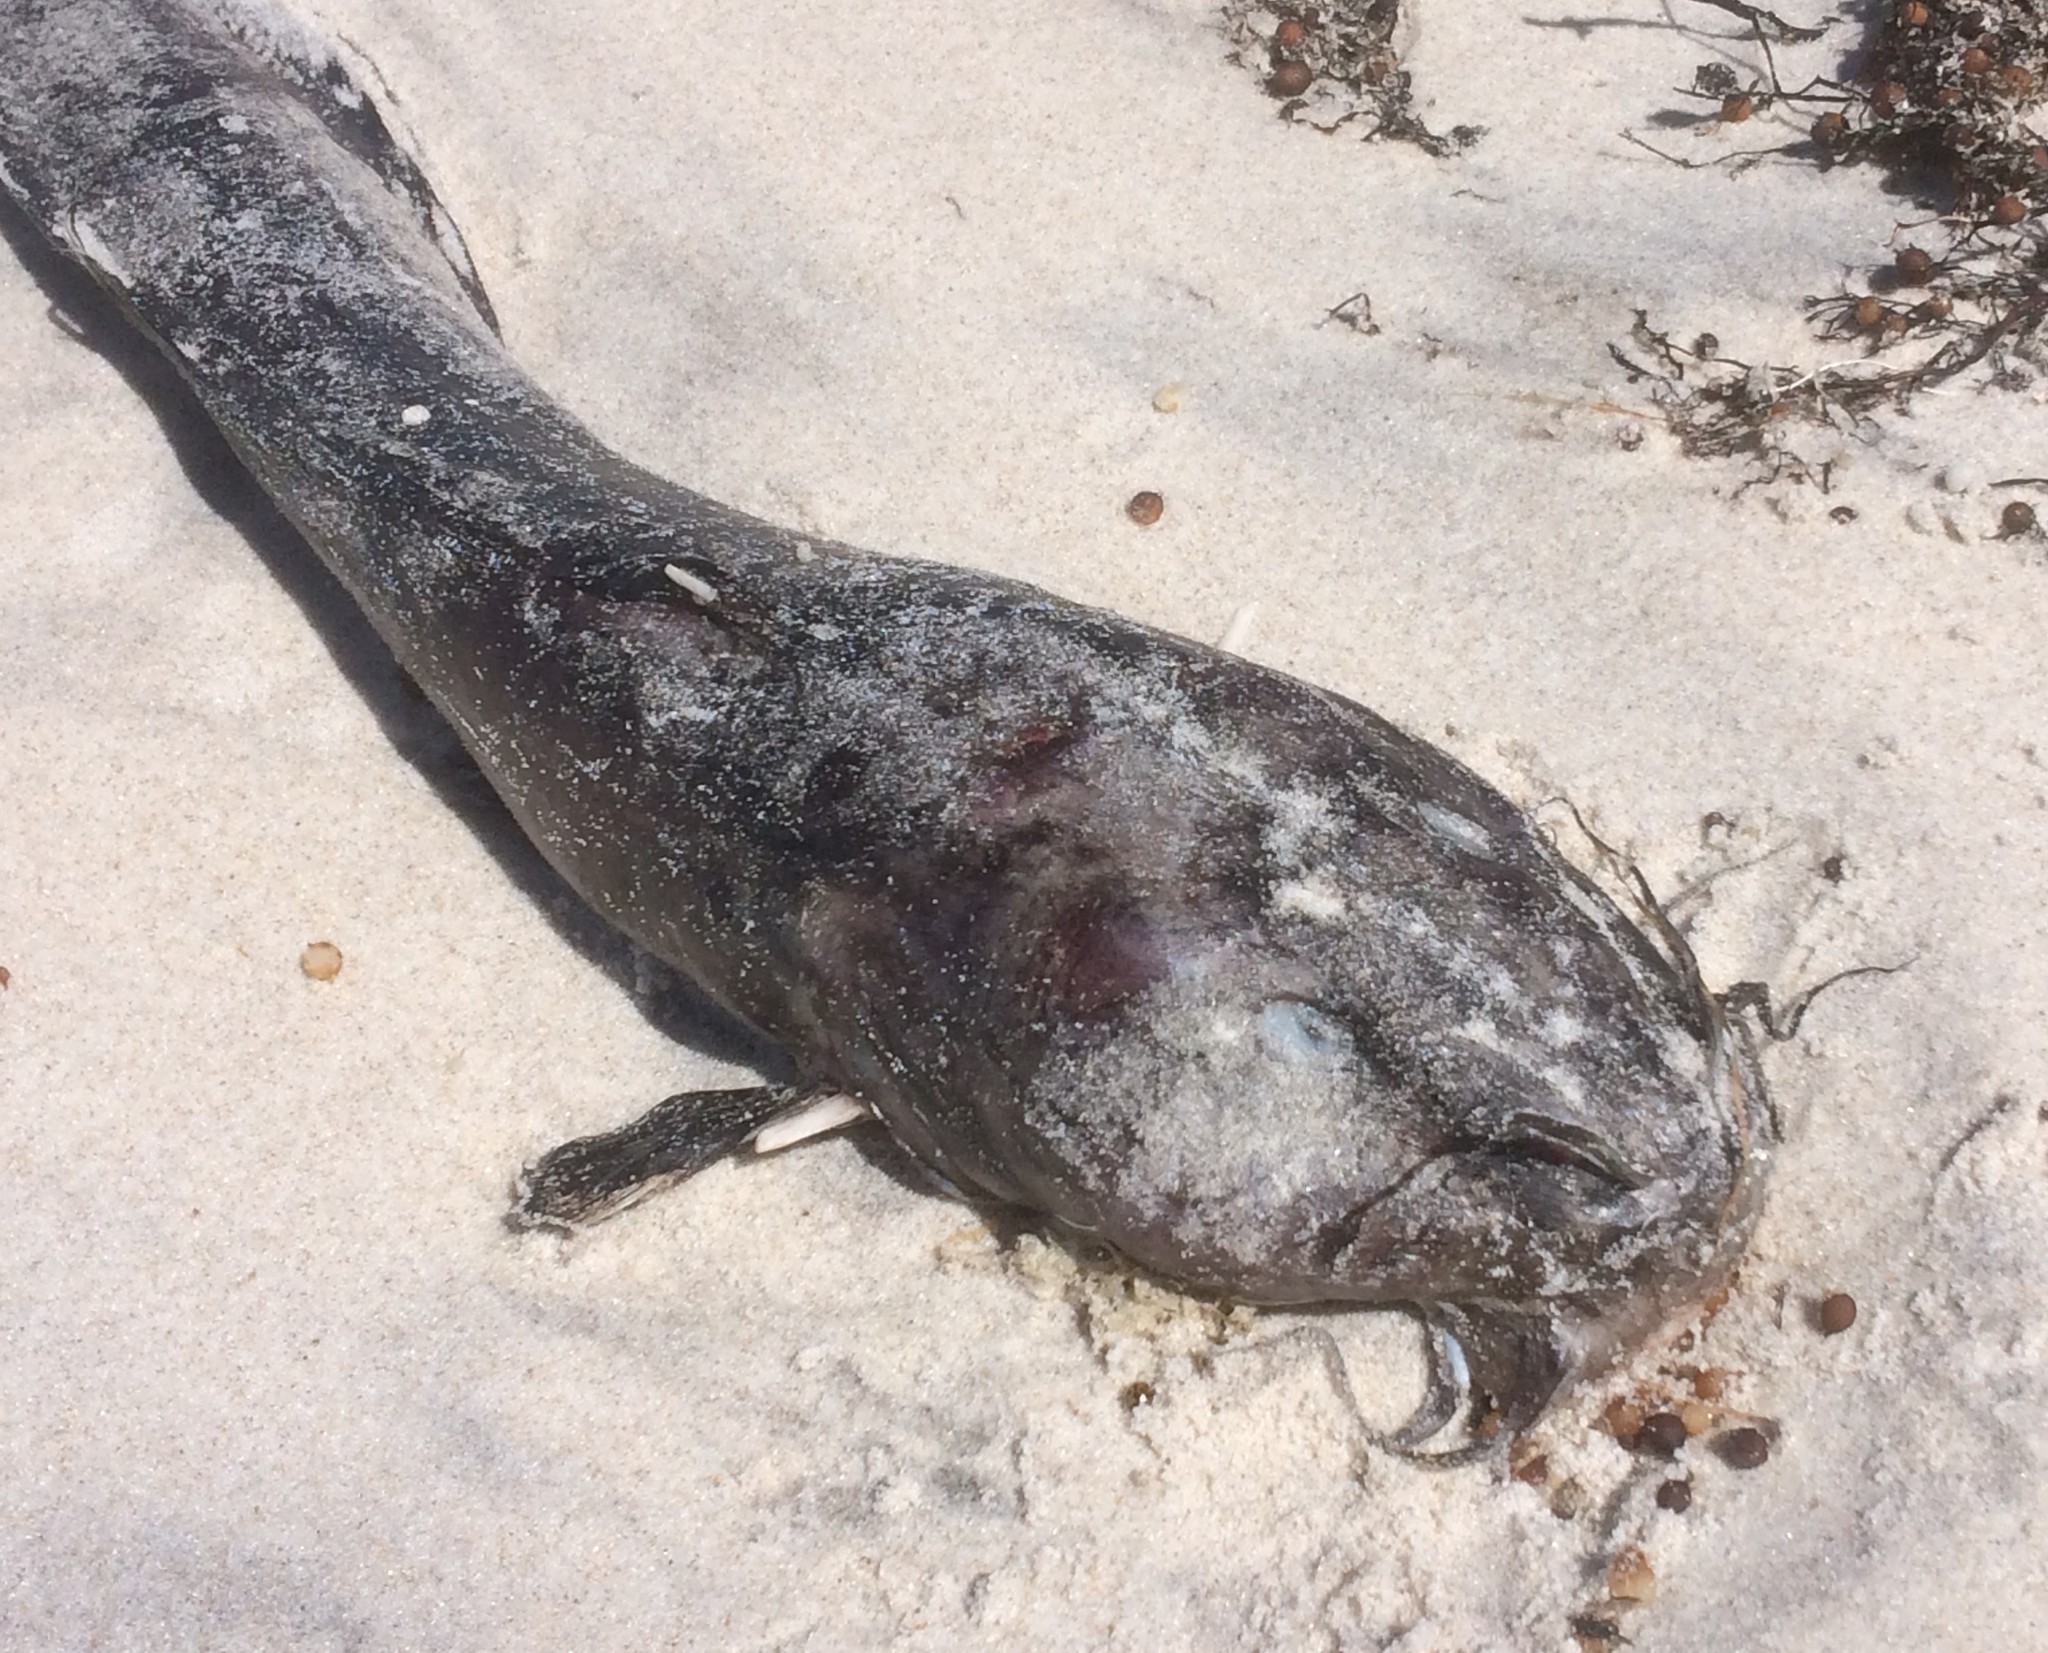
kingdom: Animalia
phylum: Chordata
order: Siluriformes
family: Plotosidae
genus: Cnidoglanis
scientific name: Cnidoglanis macrocephalus
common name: Cobbler
